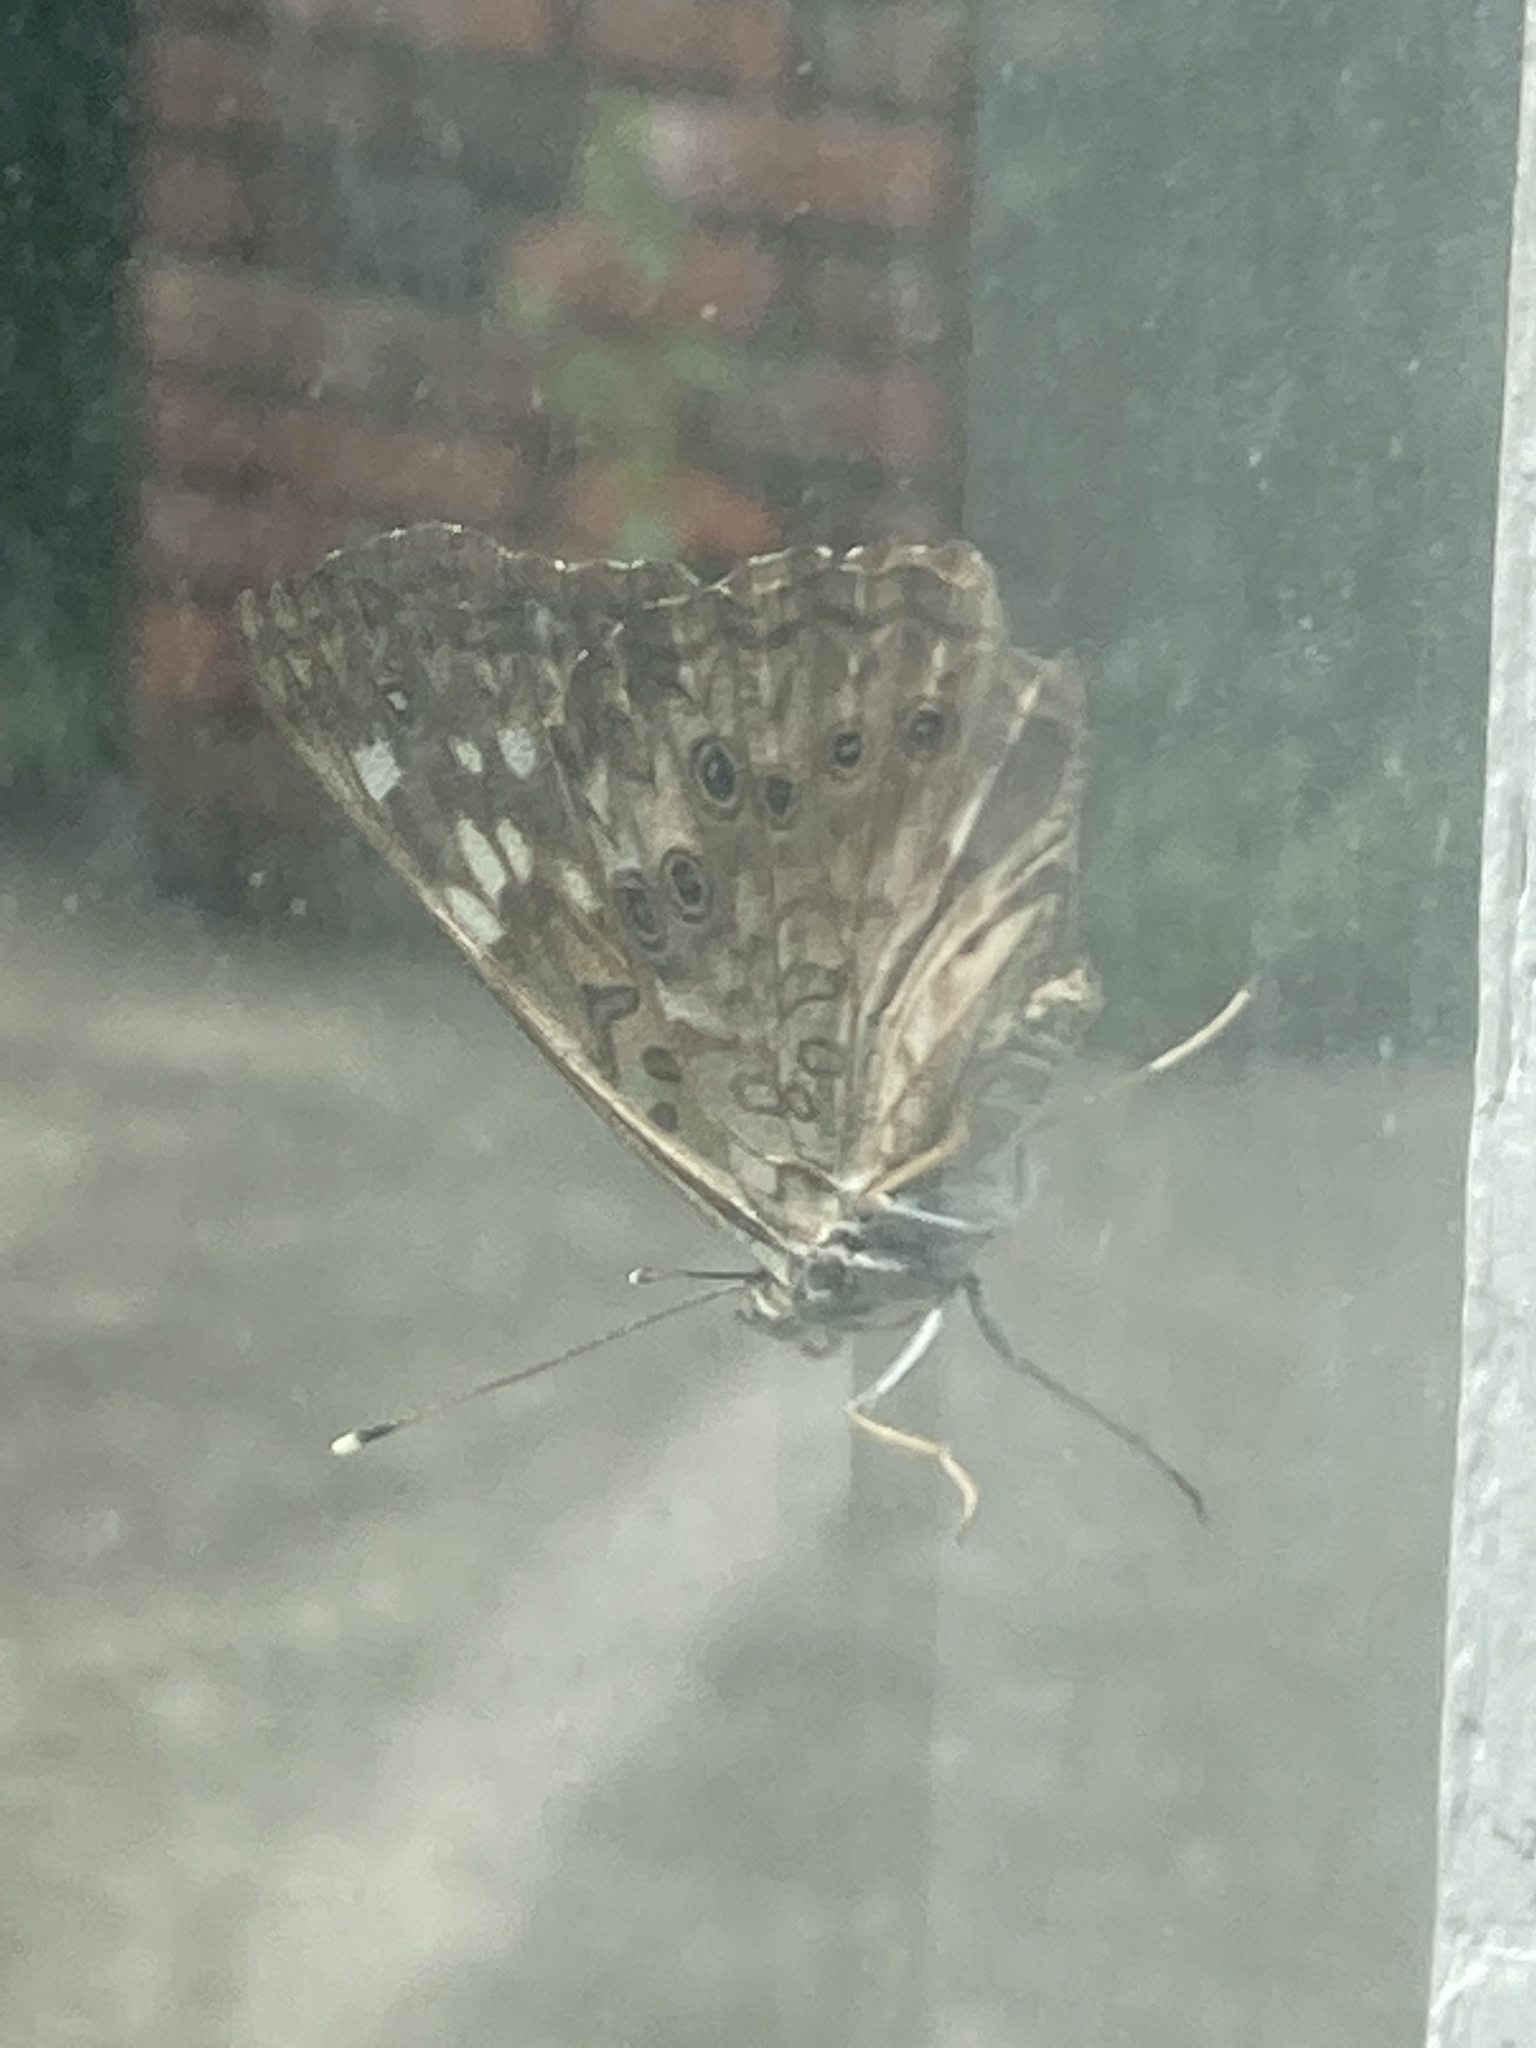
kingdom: Animalia
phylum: Arthropoda
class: Insecta
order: Lepidoptera
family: Nymphalidae
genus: Asterocampa
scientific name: Asterocampa celtis
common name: Hackberry emperor
